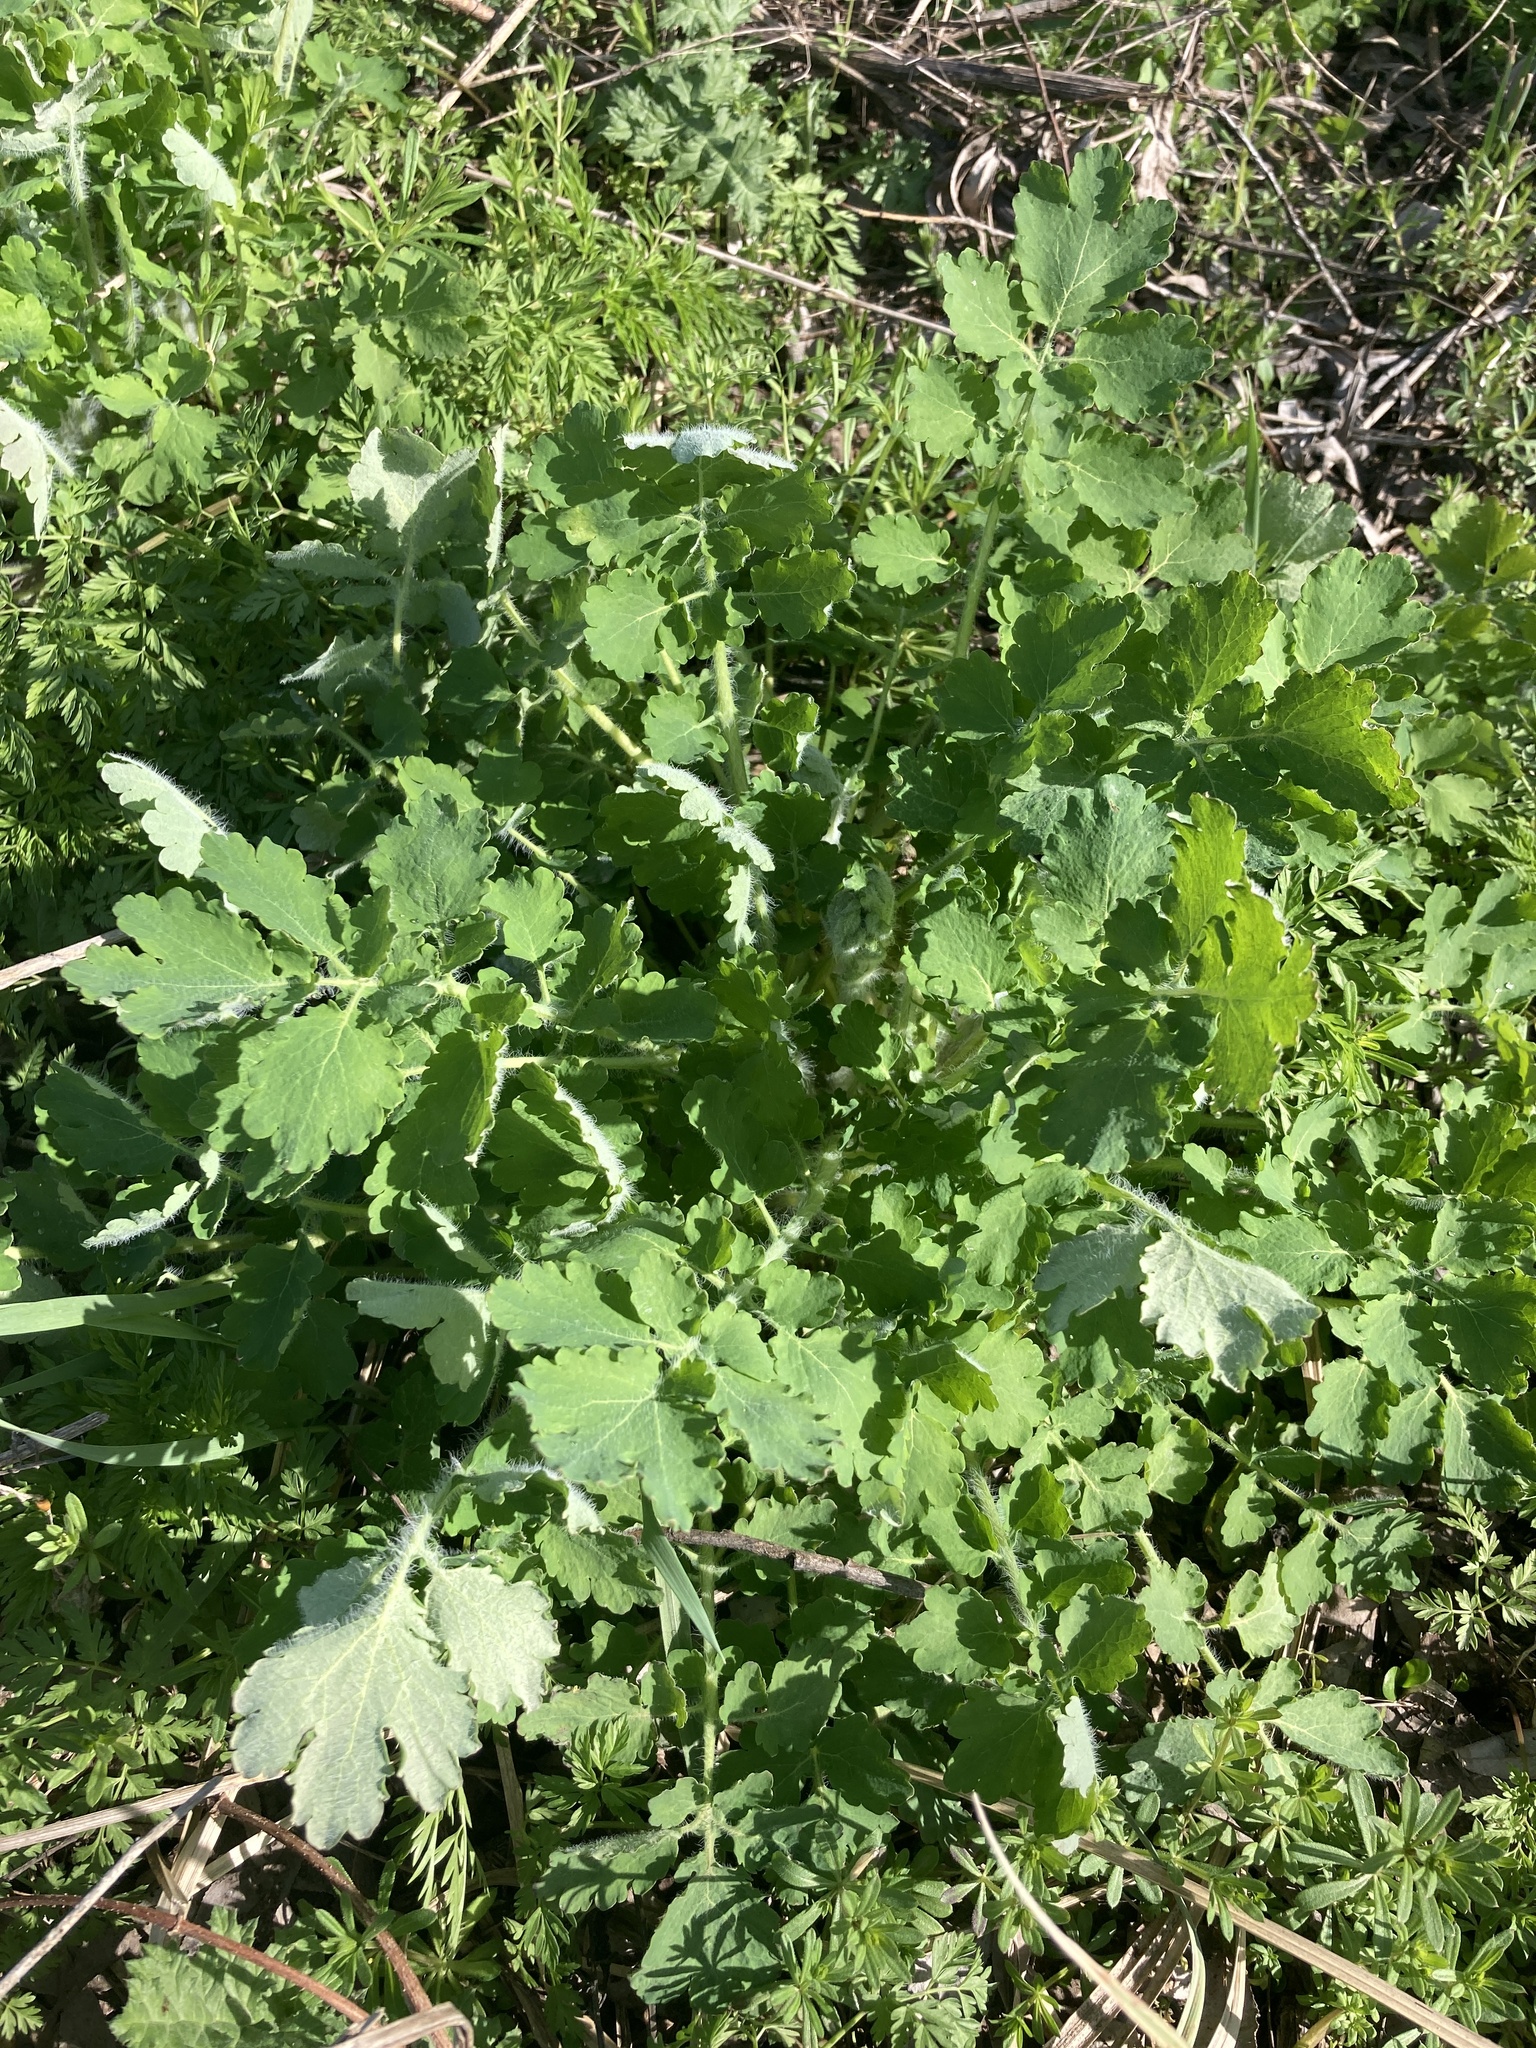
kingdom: Plantae
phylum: Tracheophyta
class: Magnoliopsida
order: Ranunculales
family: Papaveraceae
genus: Chelidonium
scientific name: Chelidonium majus
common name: Greater celandine
